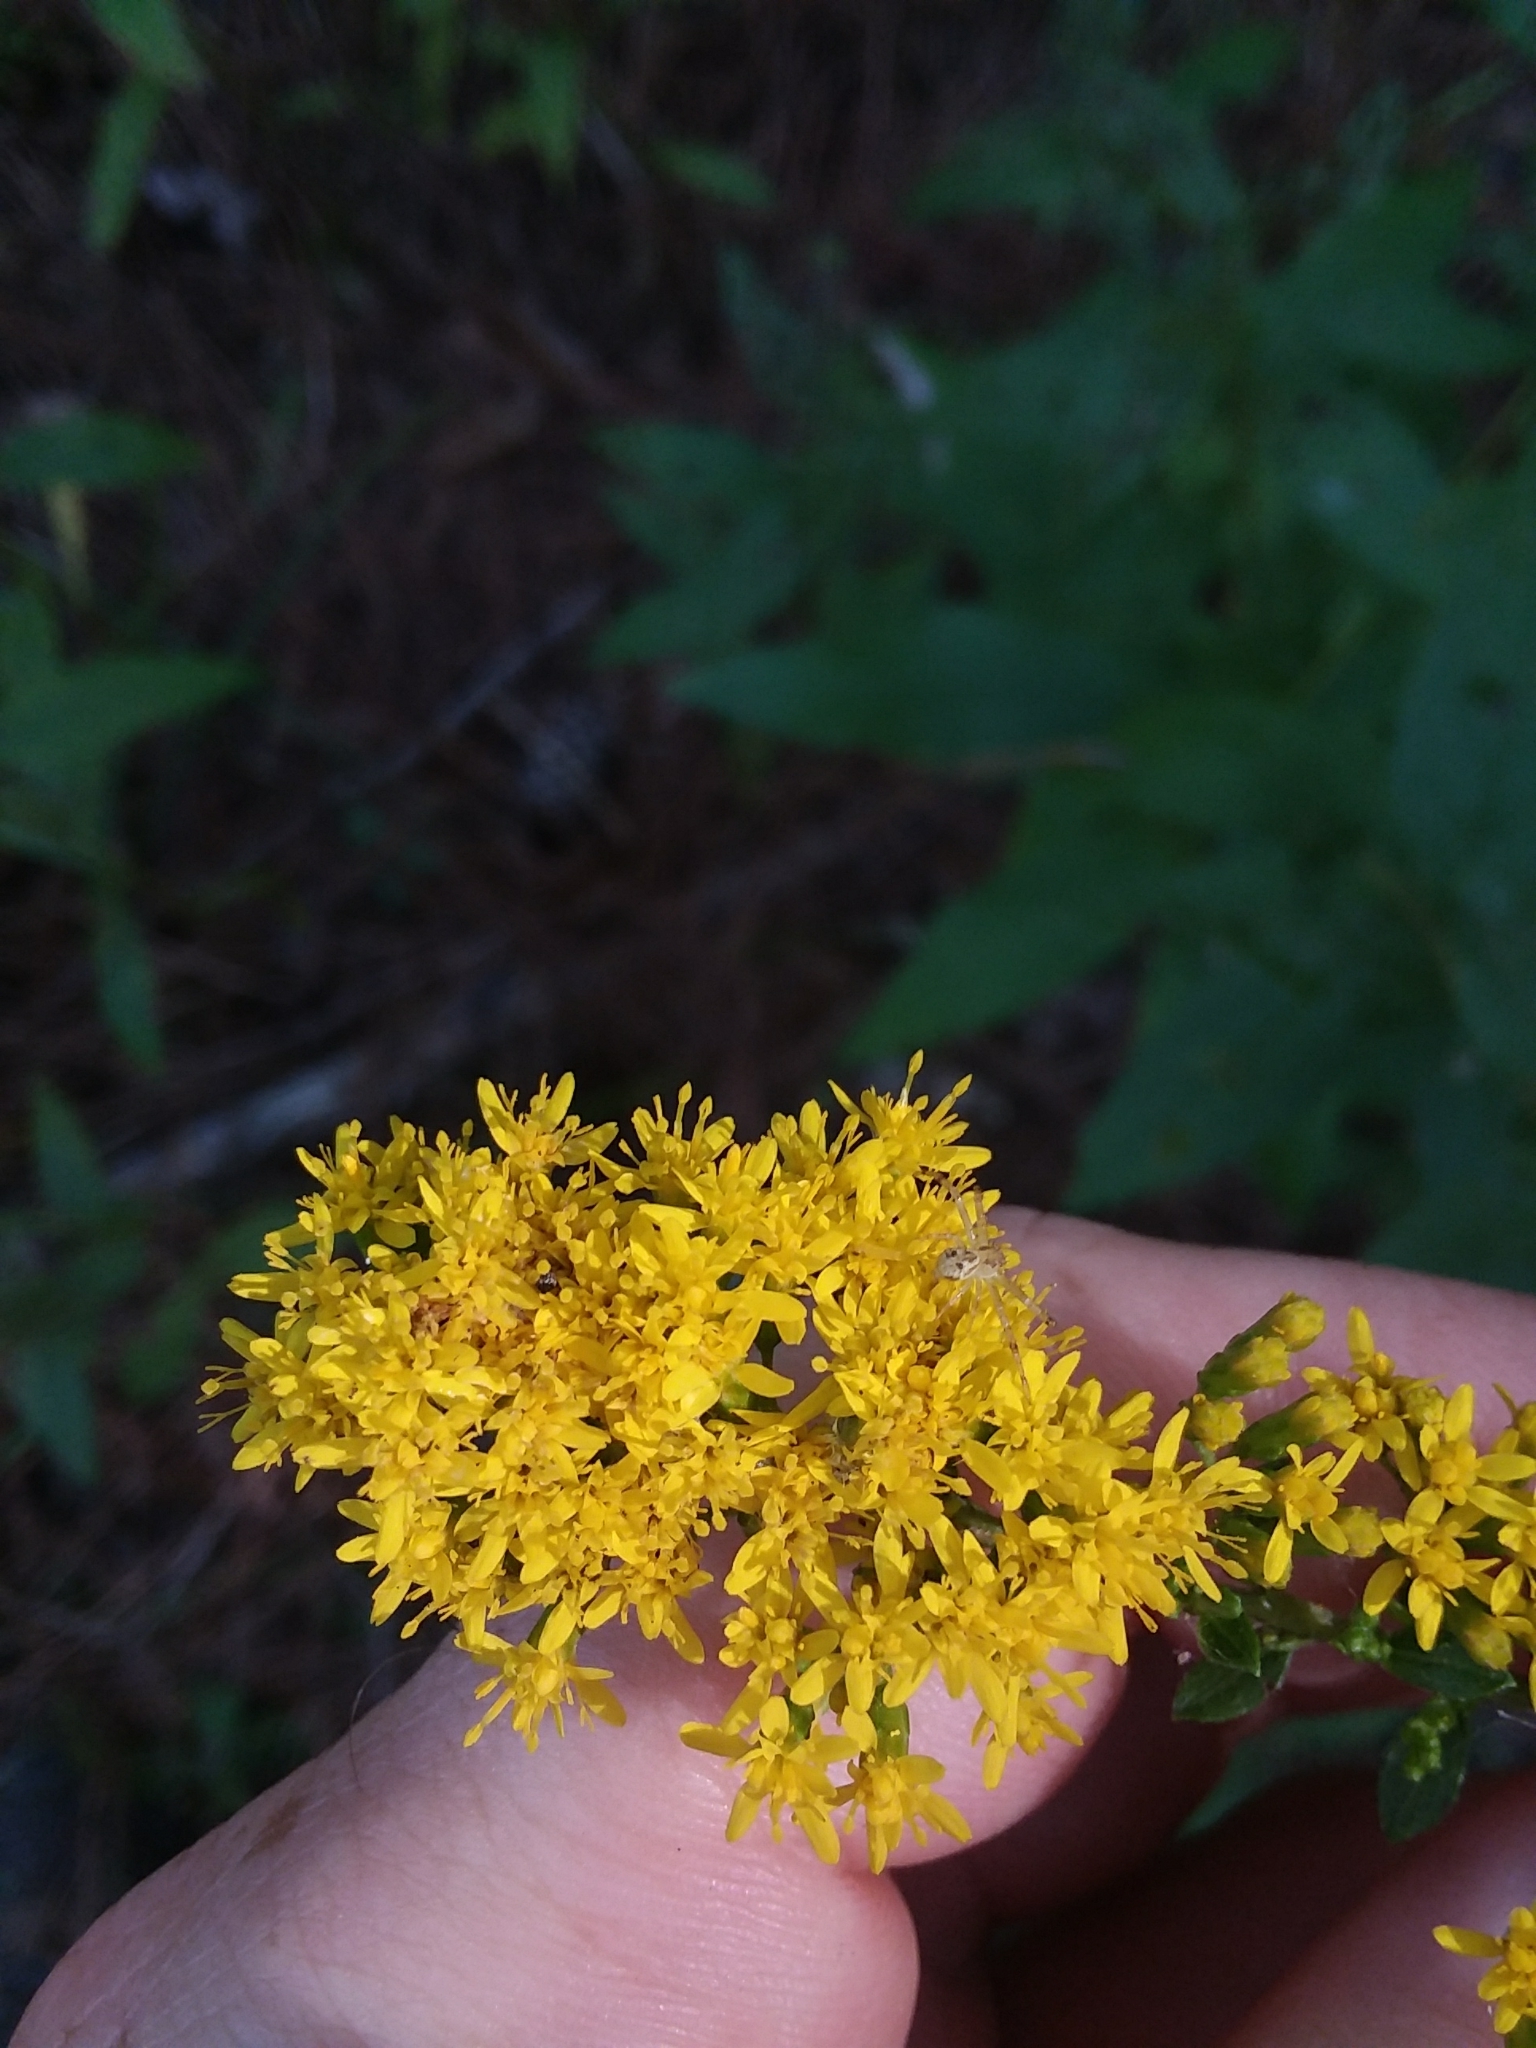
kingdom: Plantae
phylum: Tracheophyta
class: Magnoliopsida
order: Asterales
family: Asteraceae
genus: Solidago
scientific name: Solidago rugosa
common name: Rough-stemmed goldenrod
